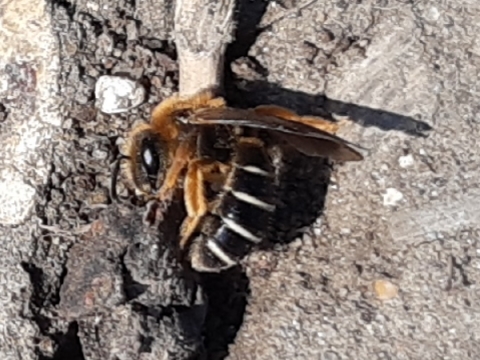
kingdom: Animalia
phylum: Arthropoda
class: Insecta
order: Hymenoptera
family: Halictidae
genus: Halictus
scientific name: Halictus rubicundus
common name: Orange-legged furrow bee
